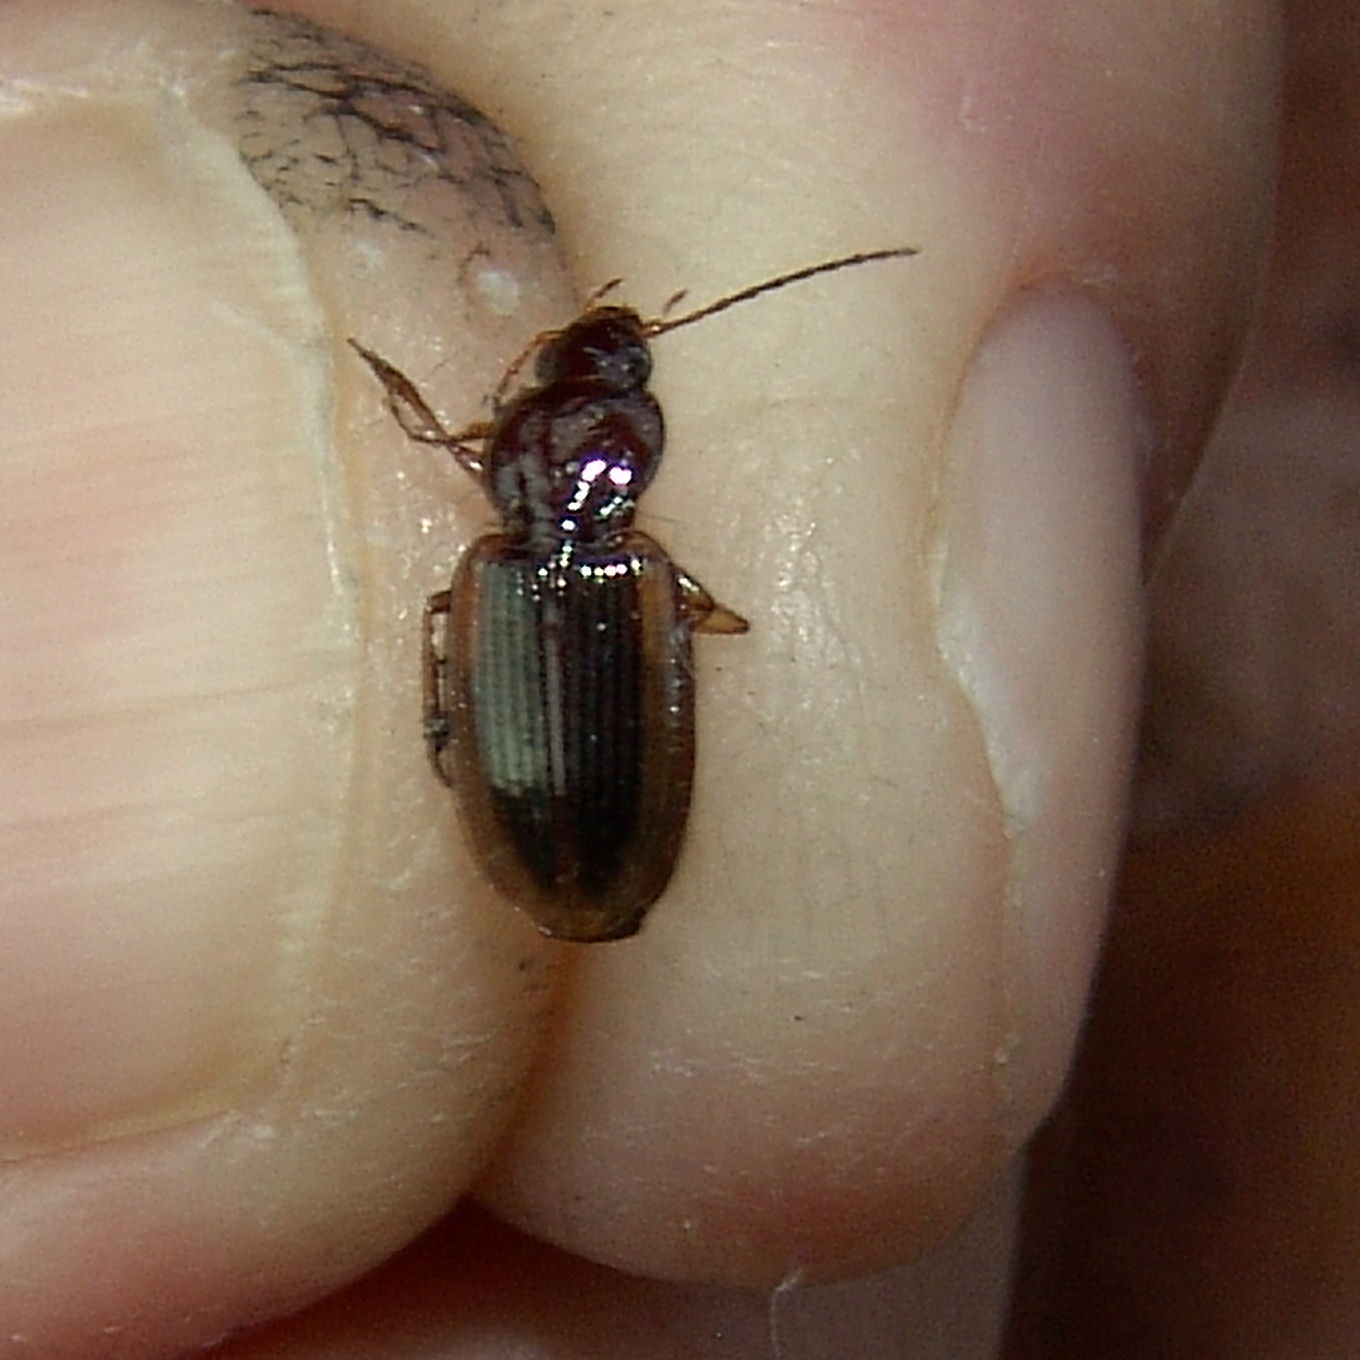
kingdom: Animalia
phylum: Arthropoda
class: Insecta
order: Coleoptera
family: Carabidae
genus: Agonum
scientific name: Agonum pallipes
